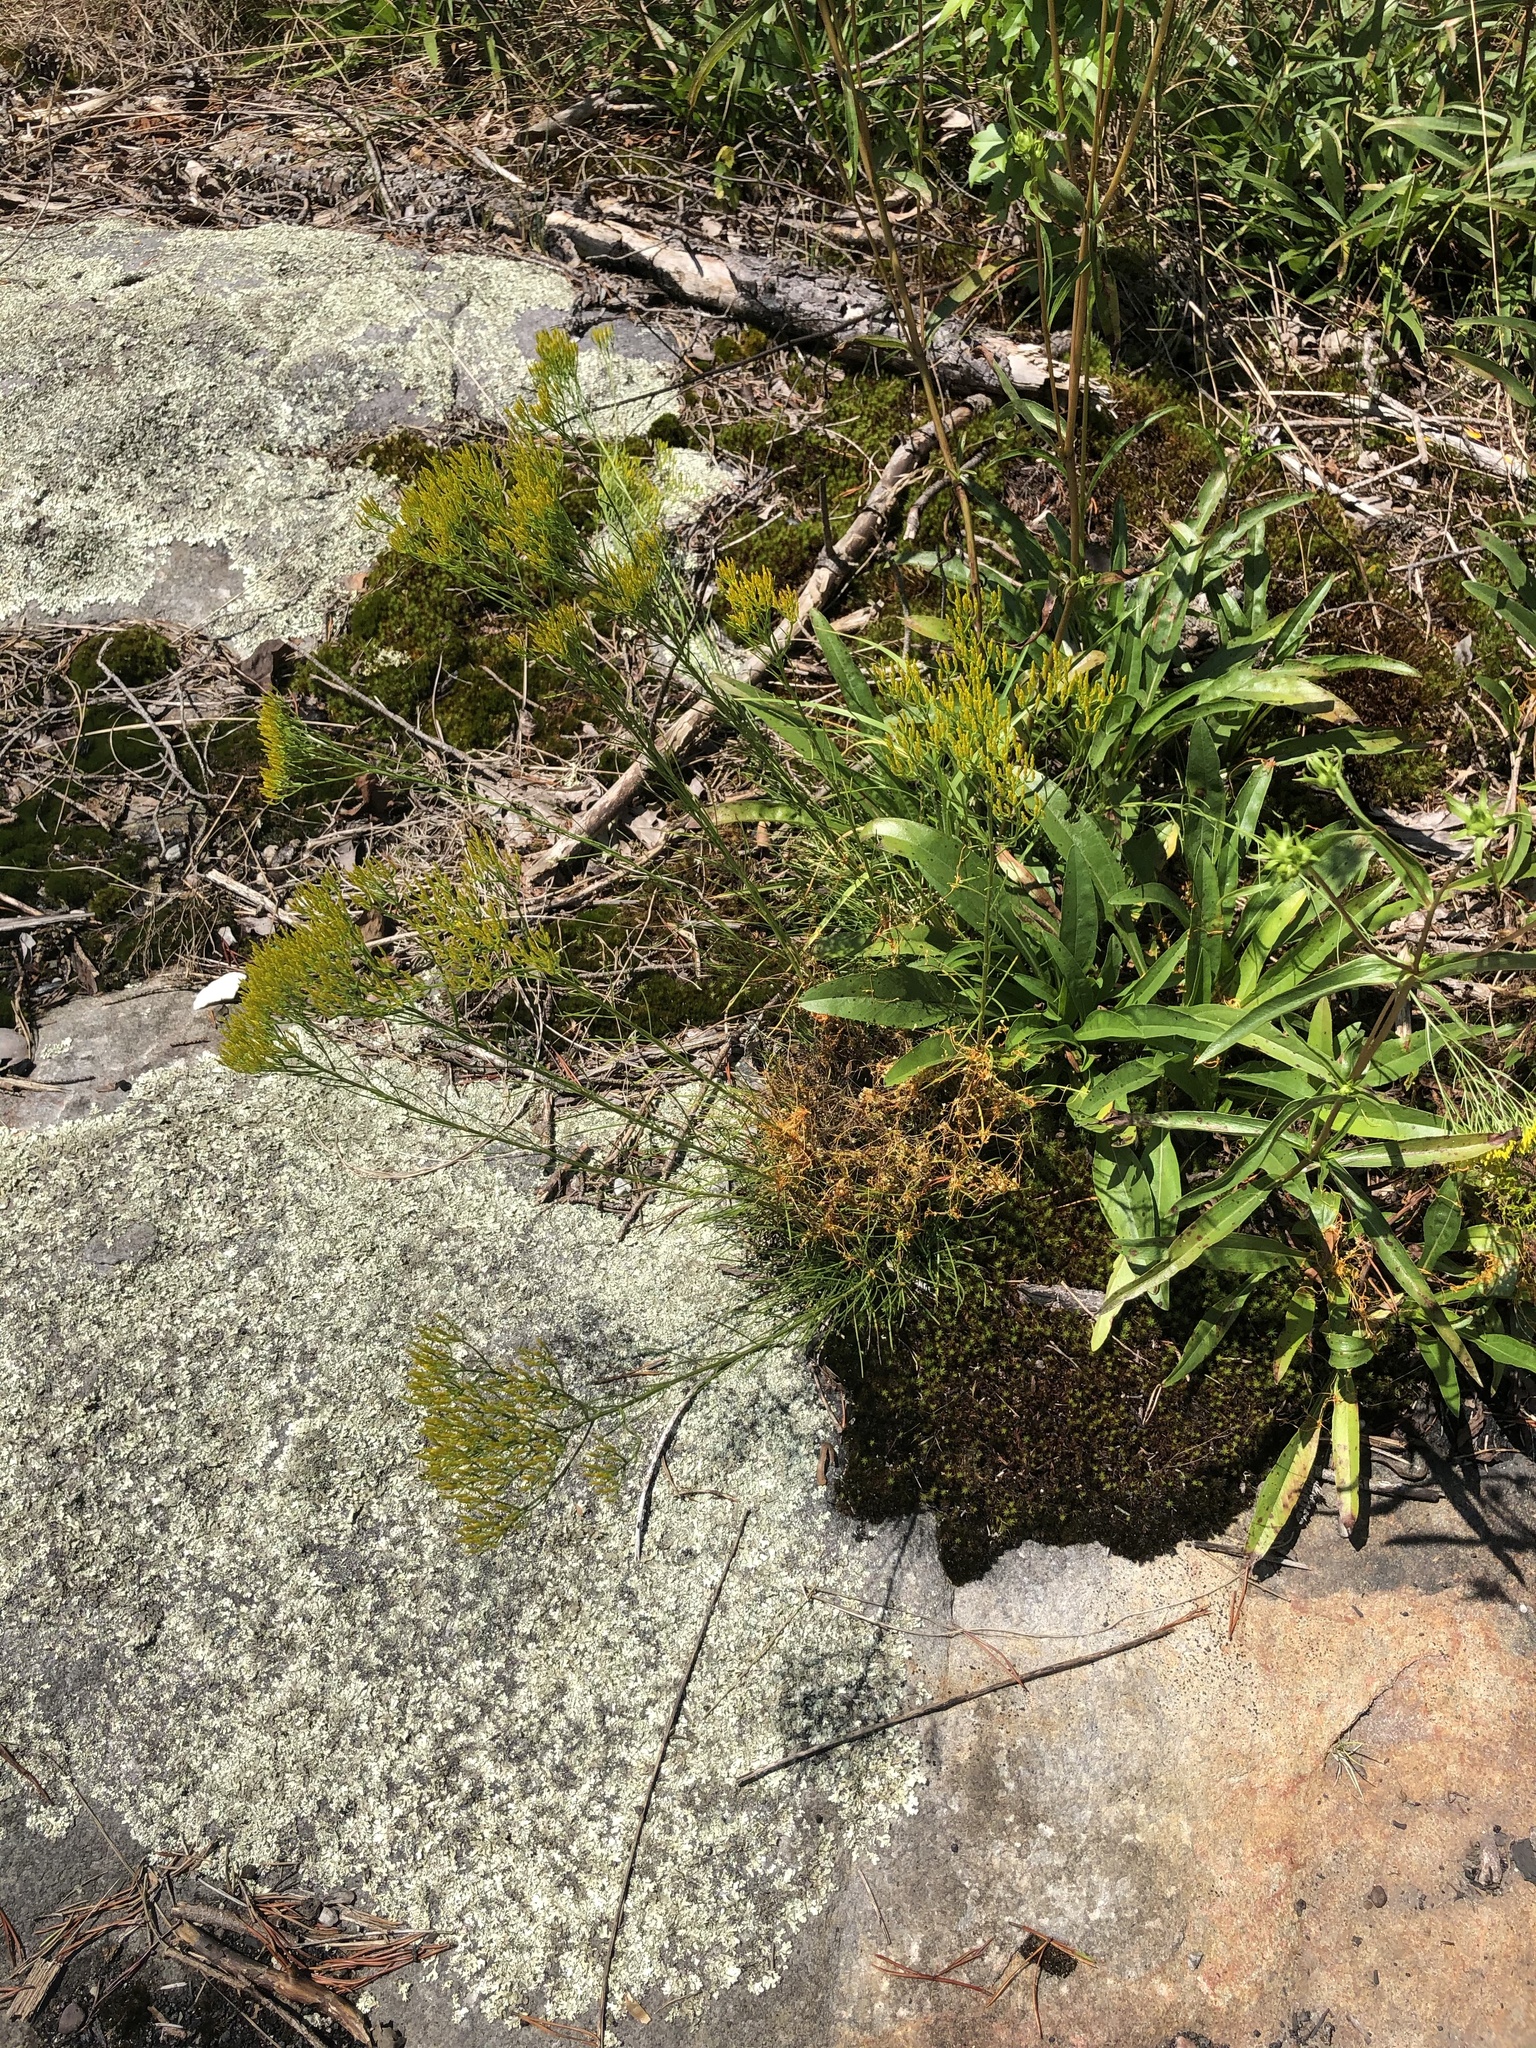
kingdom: Plantae
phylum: Tracheophyta
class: Magnoliopsida
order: Asterales
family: Asteraceae
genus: Bigelowia
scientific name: Bigelowia nuttallii
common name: Nuttall's rayless-goldenrod
